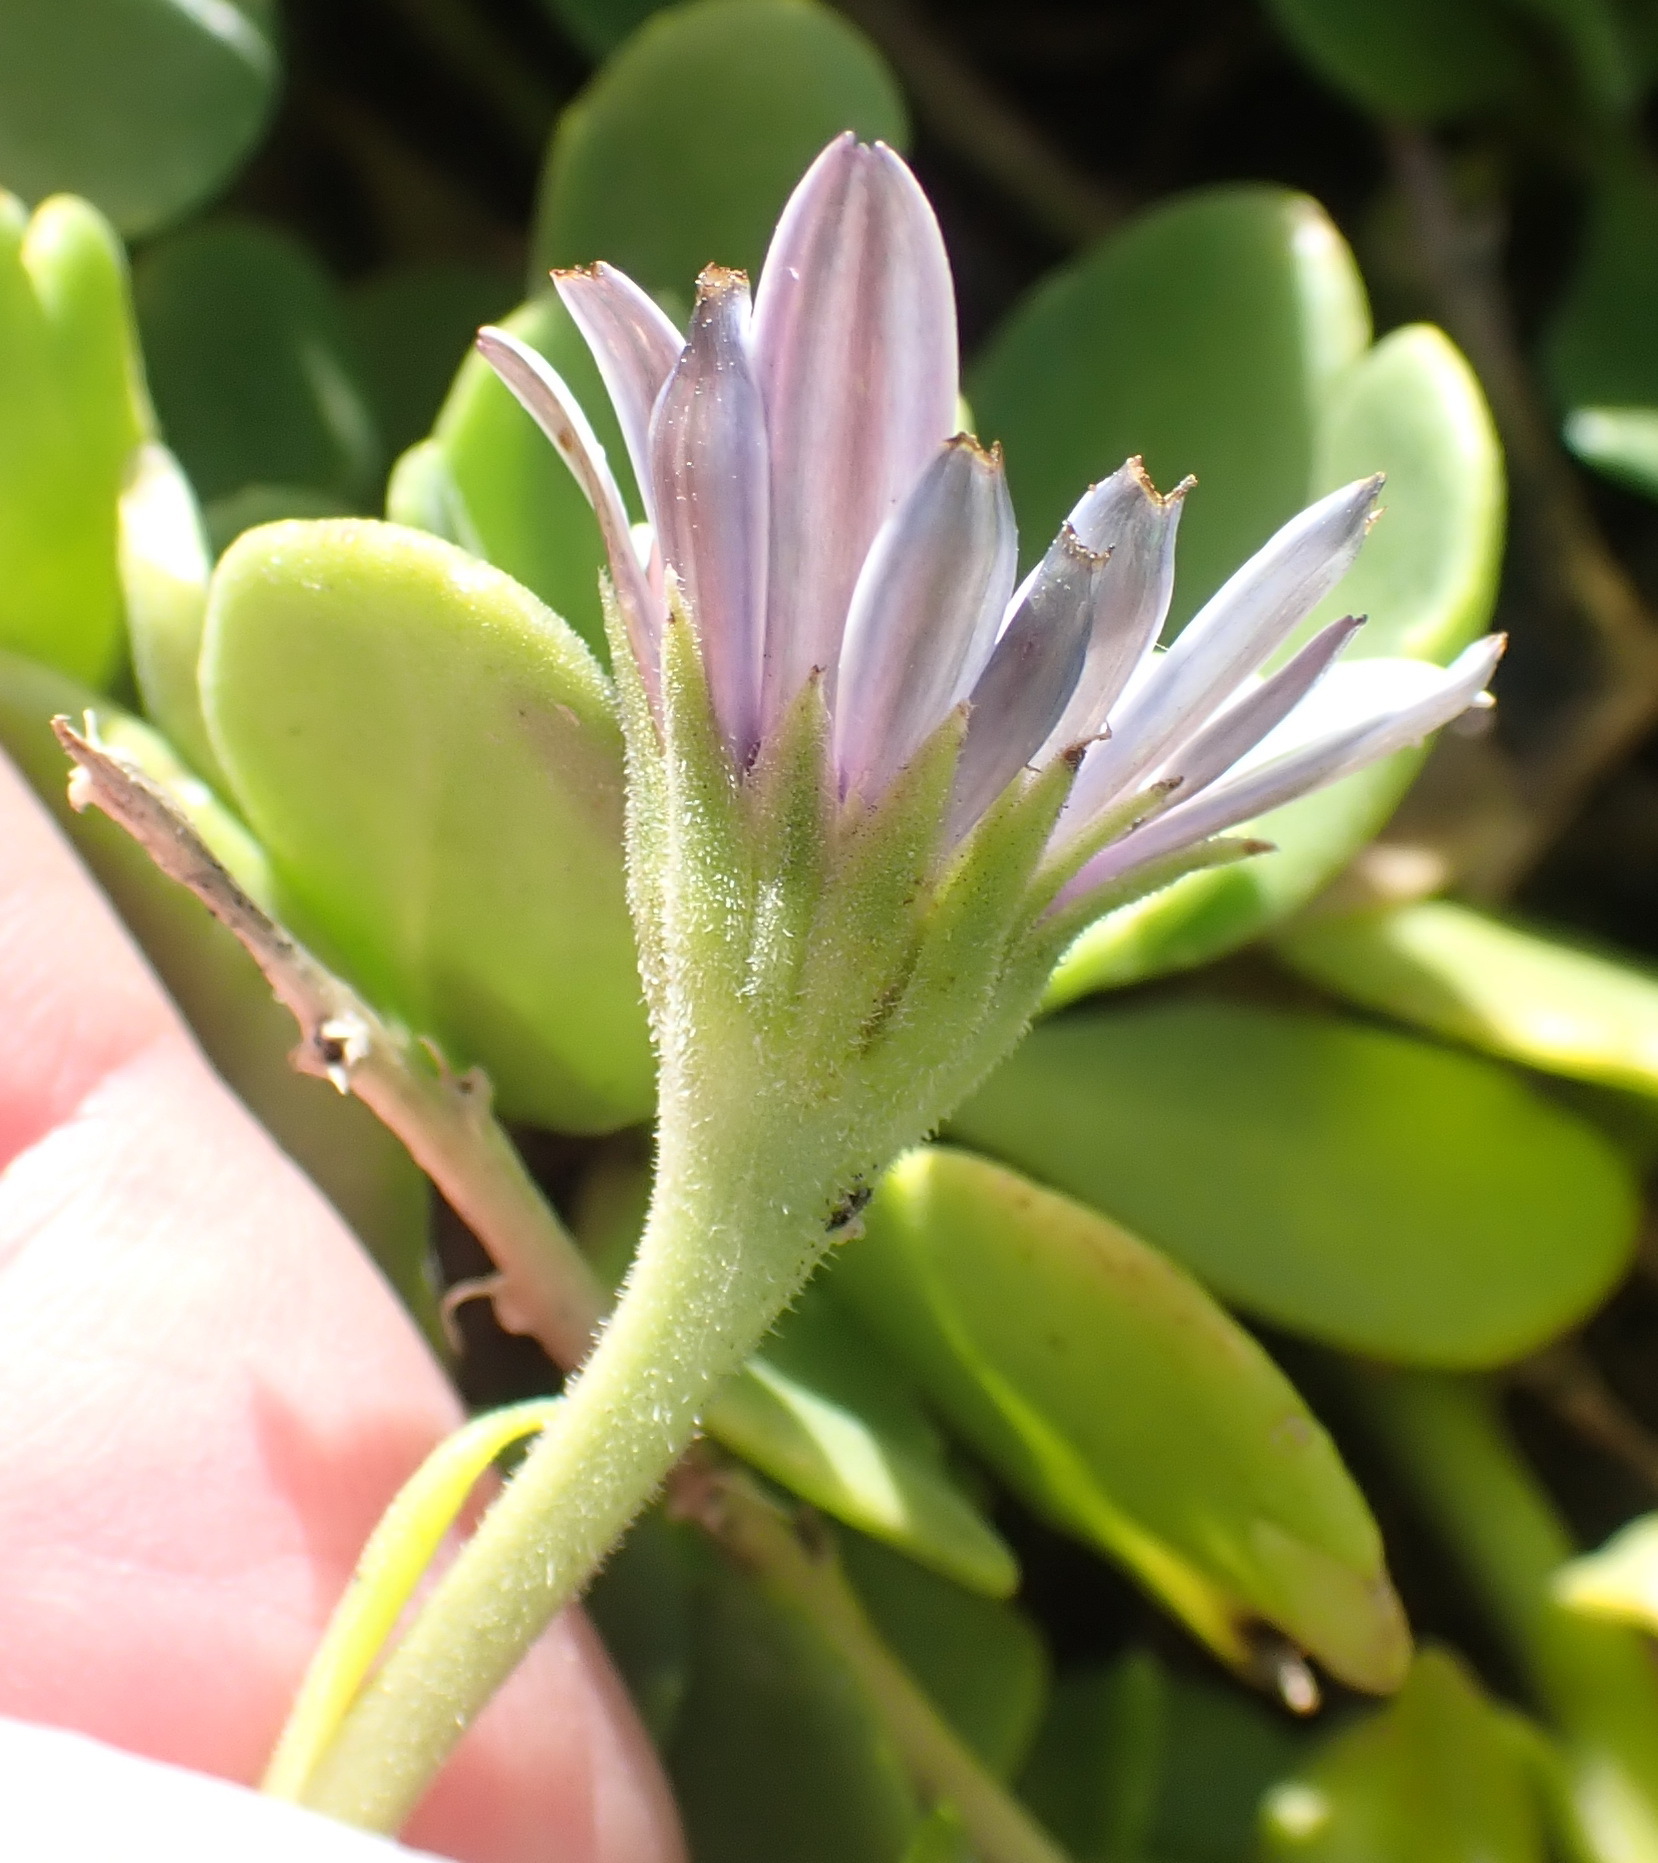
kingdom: Plantae
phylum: Tracheophyta
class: Magnoliopsida
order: Asterales
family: Asteraceae
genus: Dimorphotheca
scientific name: Dimorphotheca fruticosa
